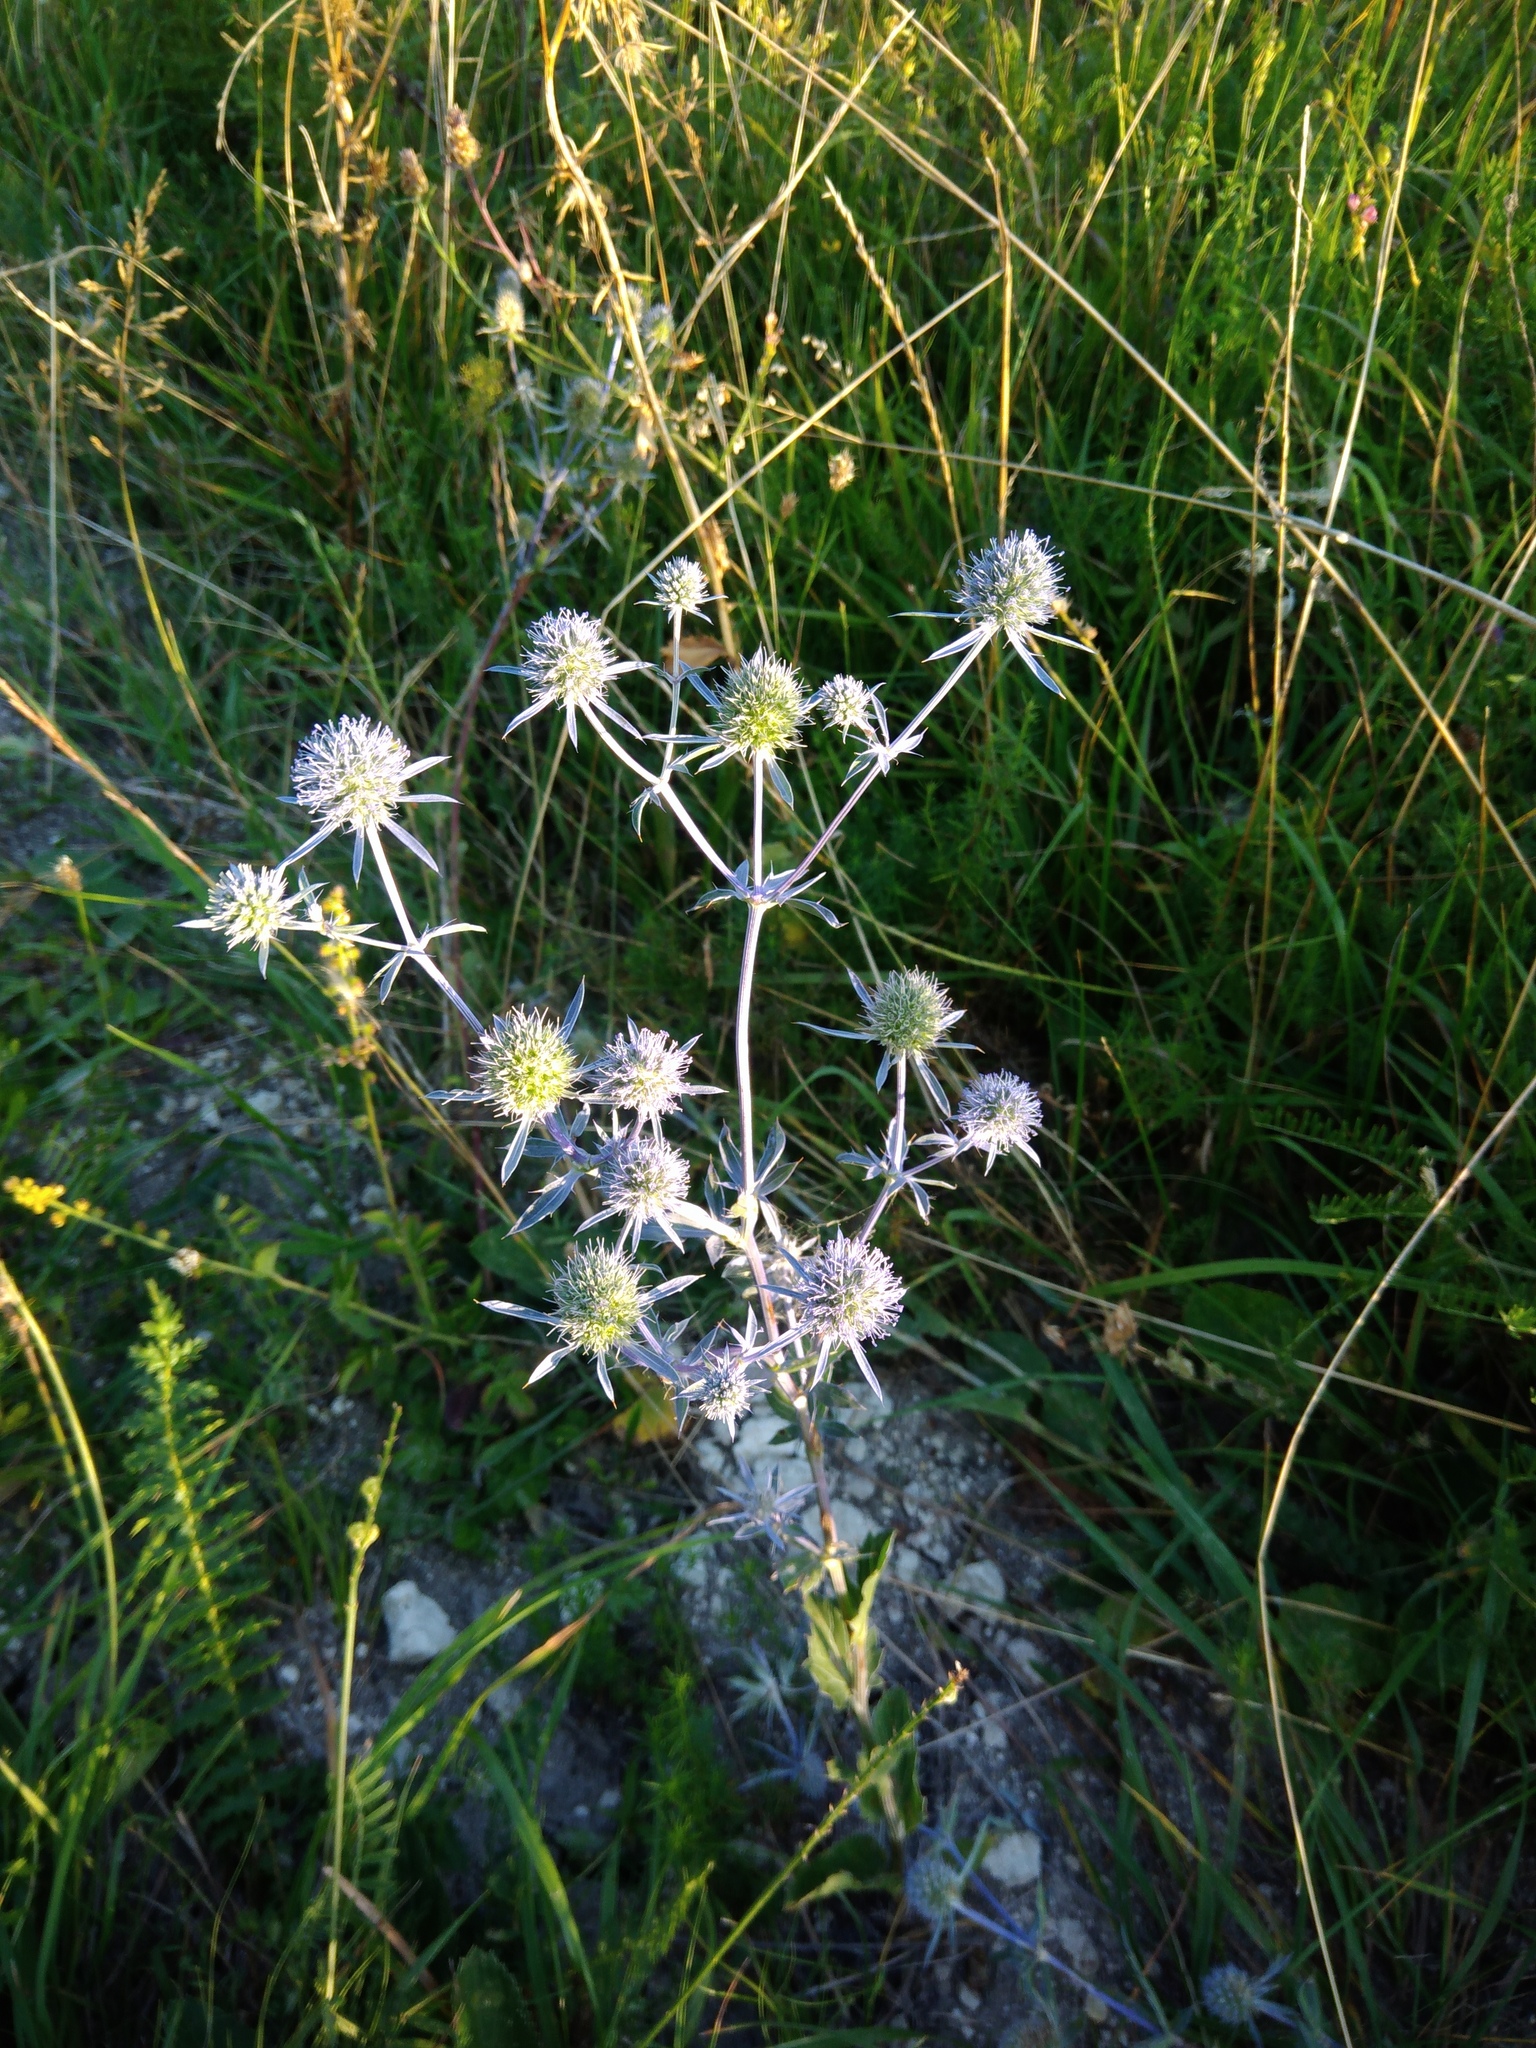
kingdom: Plantae
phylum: Tracheophyta
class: Magnoliopsida
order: Apiales
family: Apiaceae
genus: Eryngium
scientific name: Eryngium planum
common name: Blue eryngo
